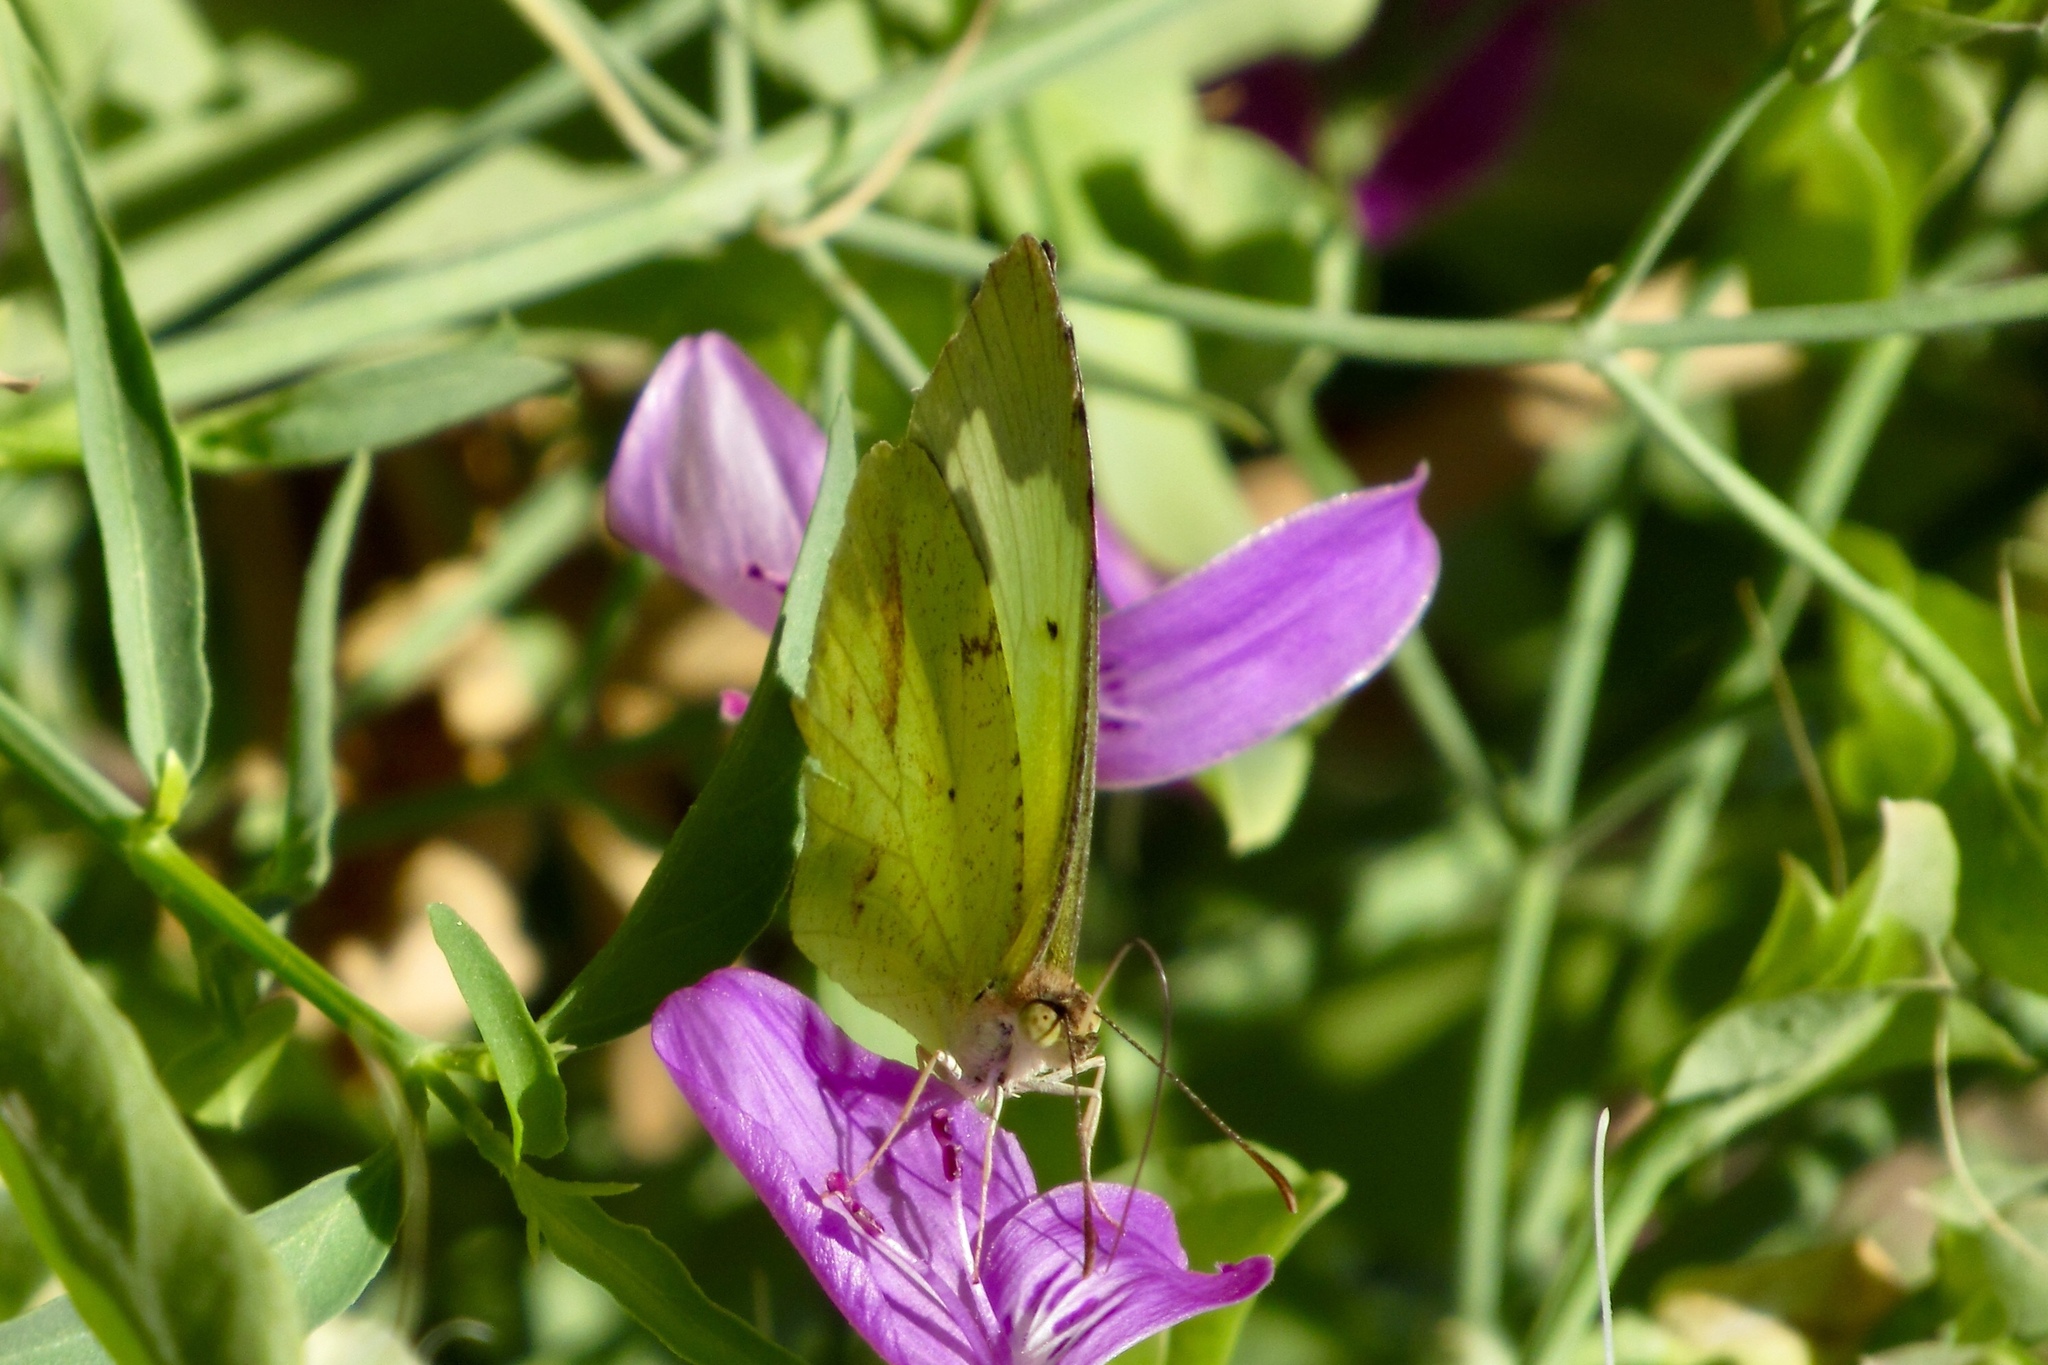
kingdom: Animalia
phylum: Arthropoda
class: Insecta
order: Lepidoptera
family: Pieridae
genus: Abaeis
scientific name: Abaeis mexicana
